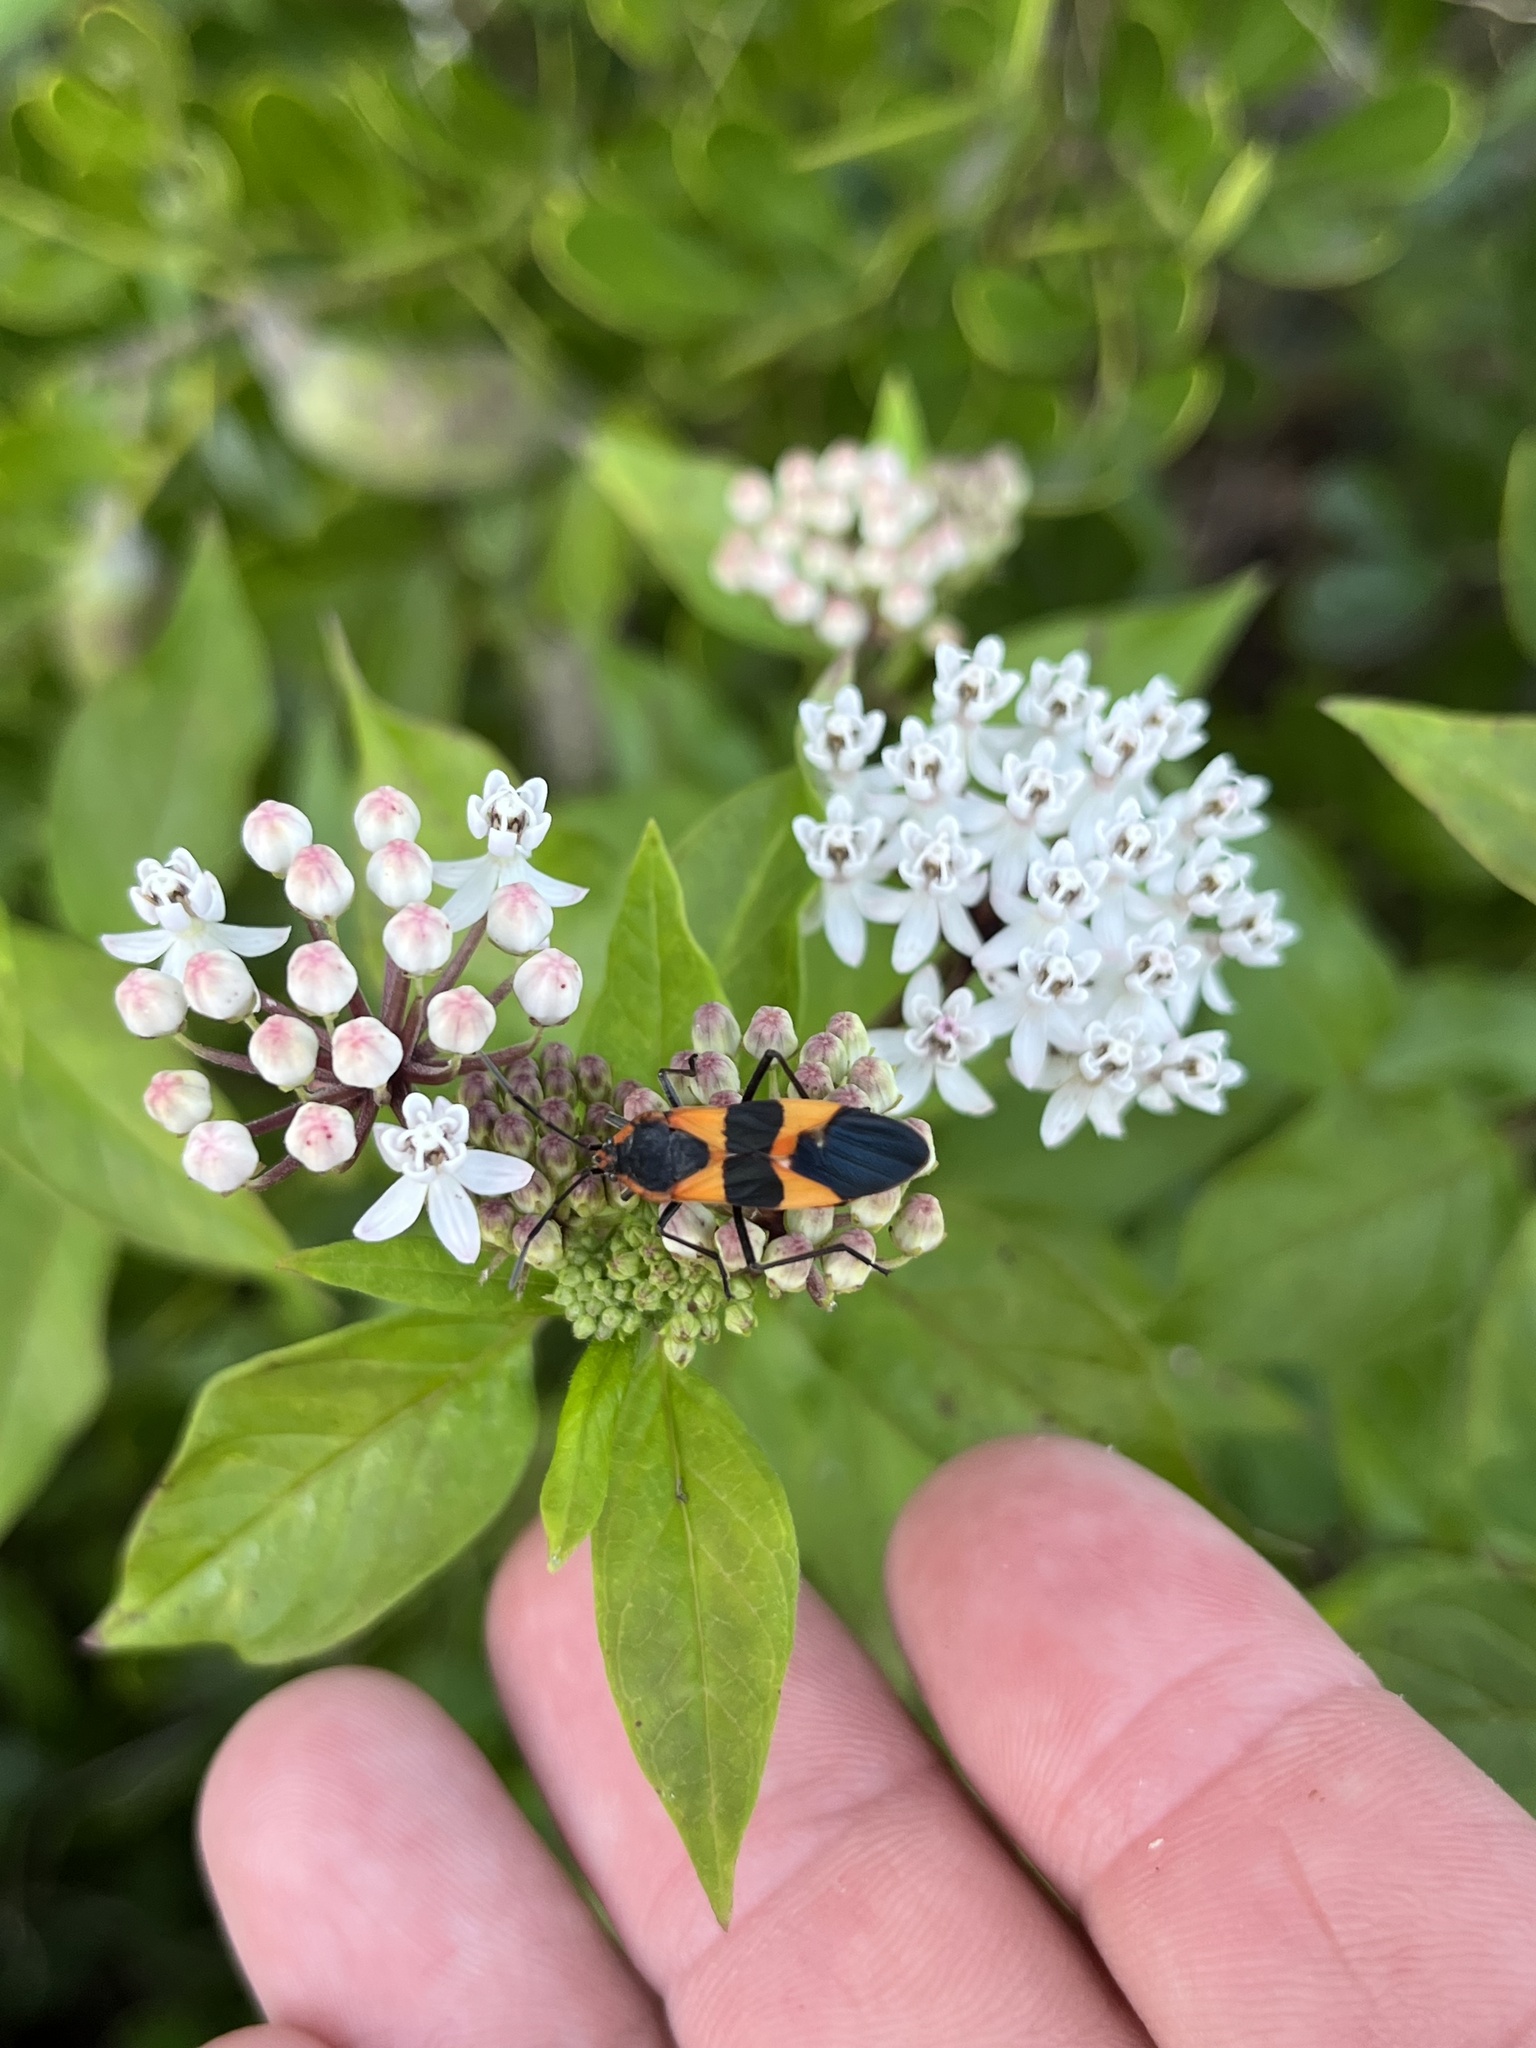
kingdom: Animalia
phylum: Arthropoda
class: Insecta
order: Hemiptera
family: Lygaeidae
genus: Oncopeltus
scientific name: Oncopeltus fasciatus
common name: Large milkweed bug
